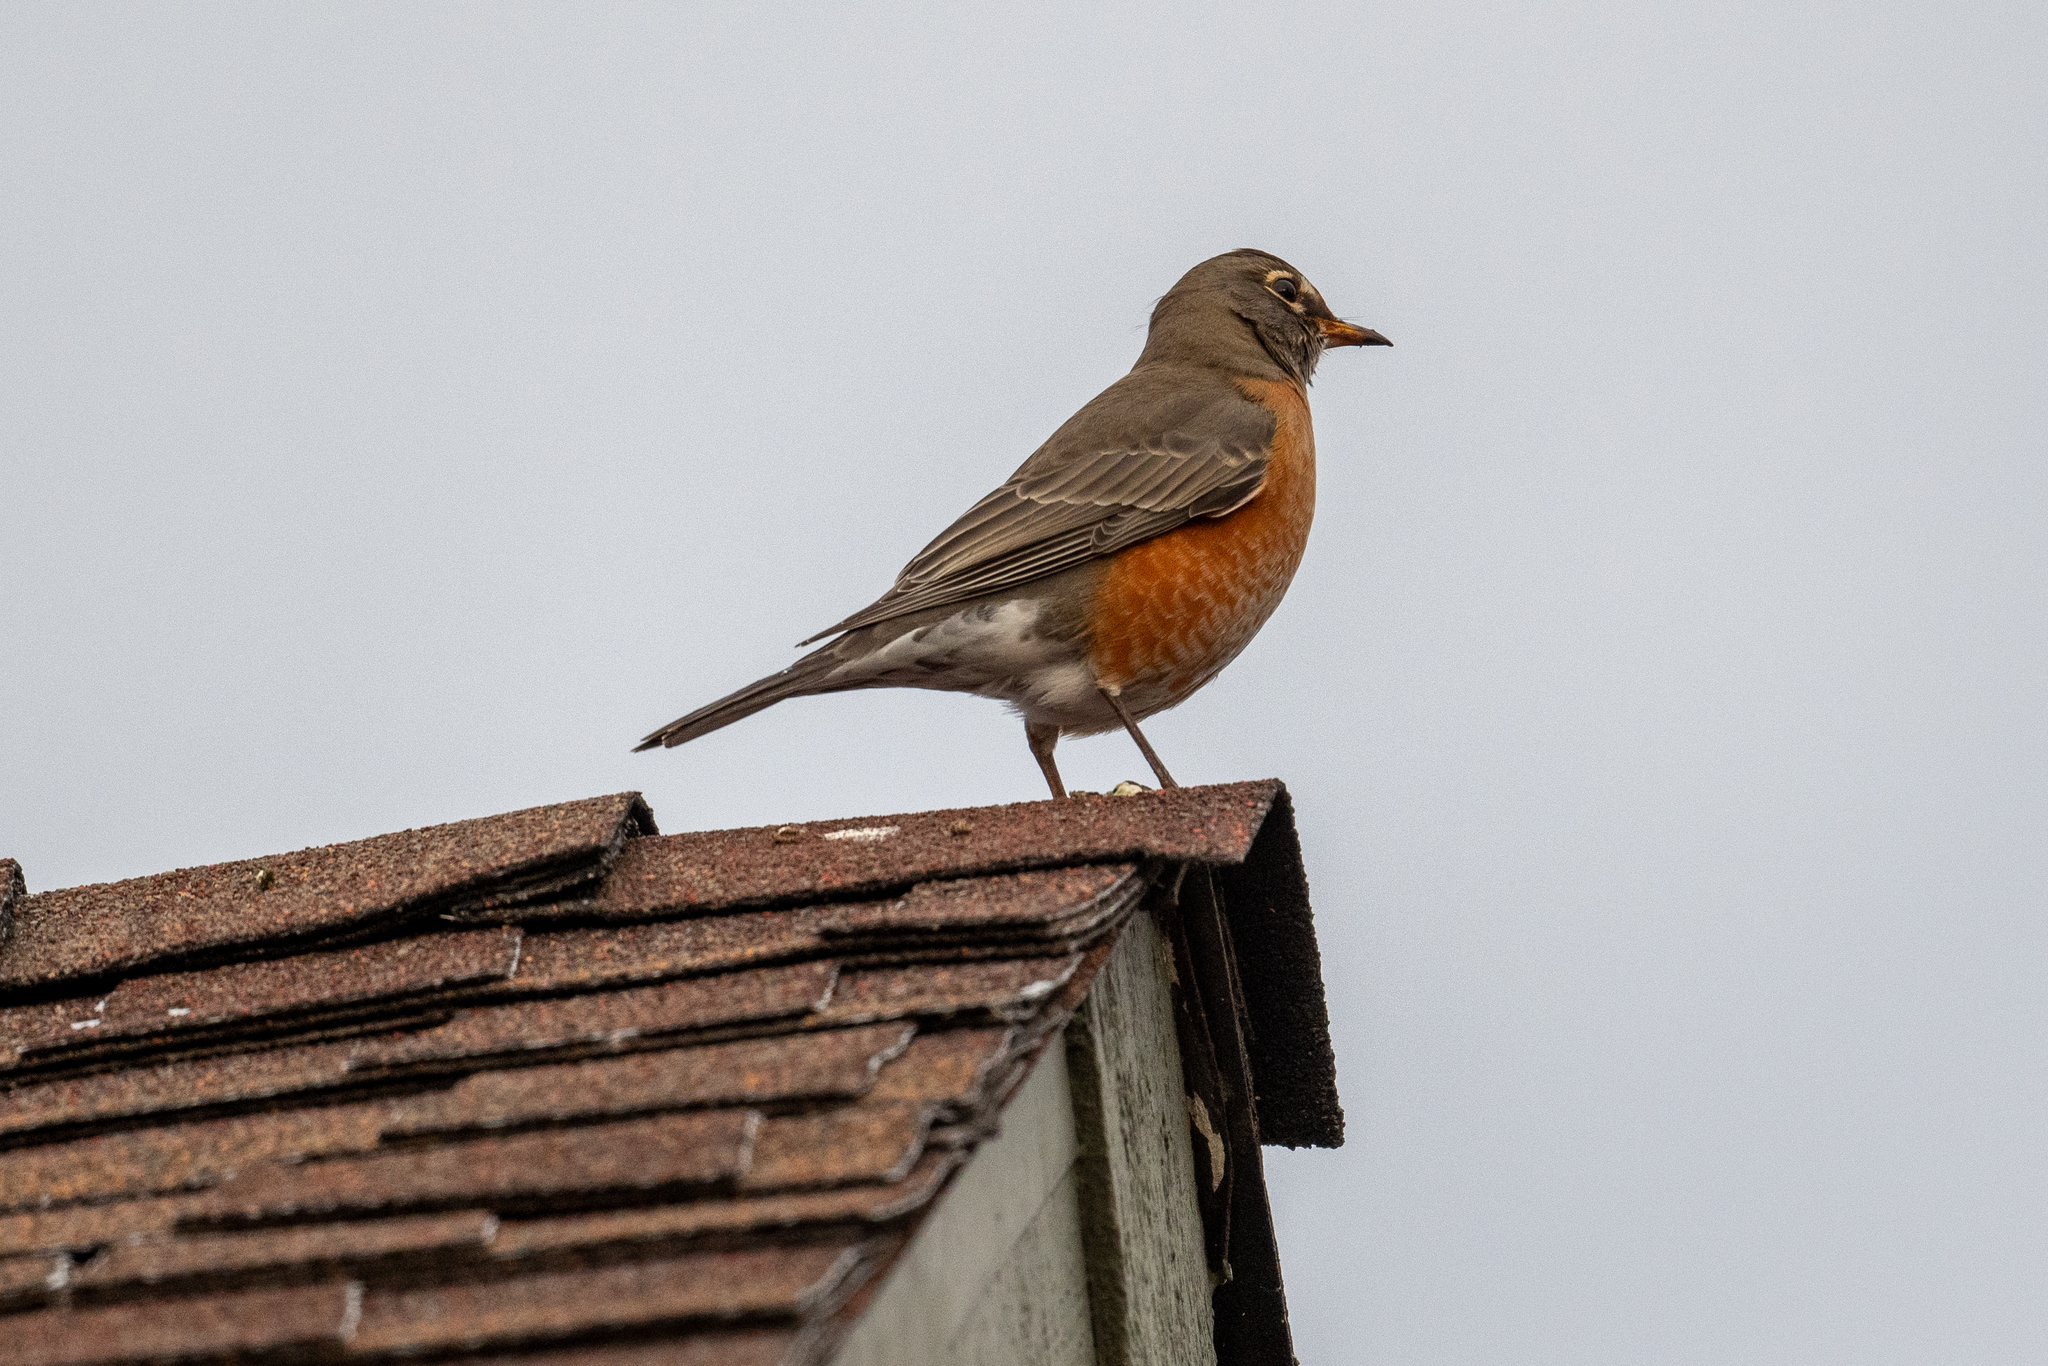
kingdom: Animalia
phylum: Chordata
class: Aves
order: Passeriformes
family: Turdidae
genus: Turdus
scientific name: Turdus migratorius
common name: American robin
